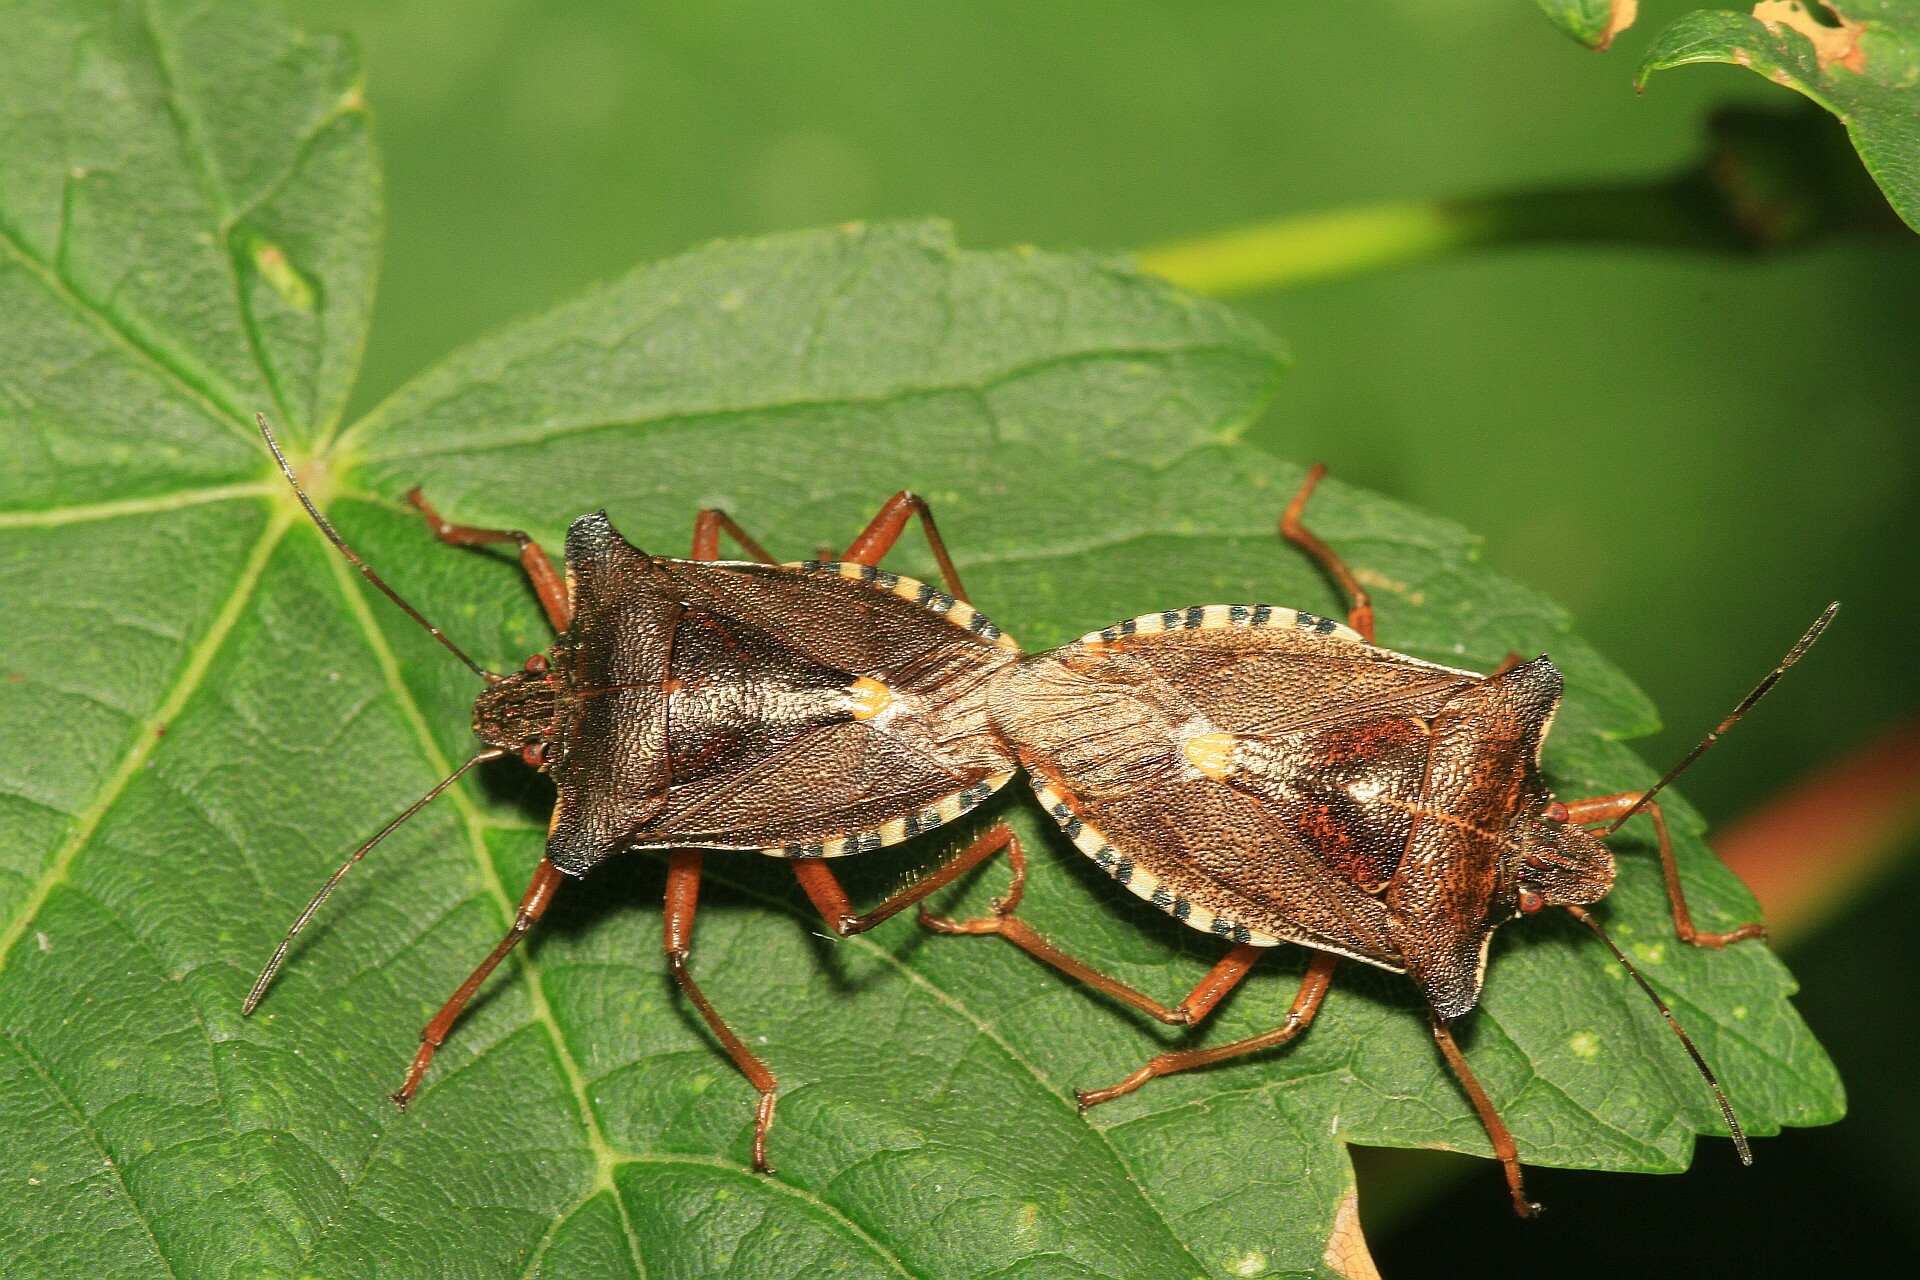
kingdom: Animalia
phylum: Arthropoda
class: Insecta
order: Hemiptera
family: Pentatomidae
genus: Pentatoma
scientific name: Pentatoma rufipes
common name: Forest bug
